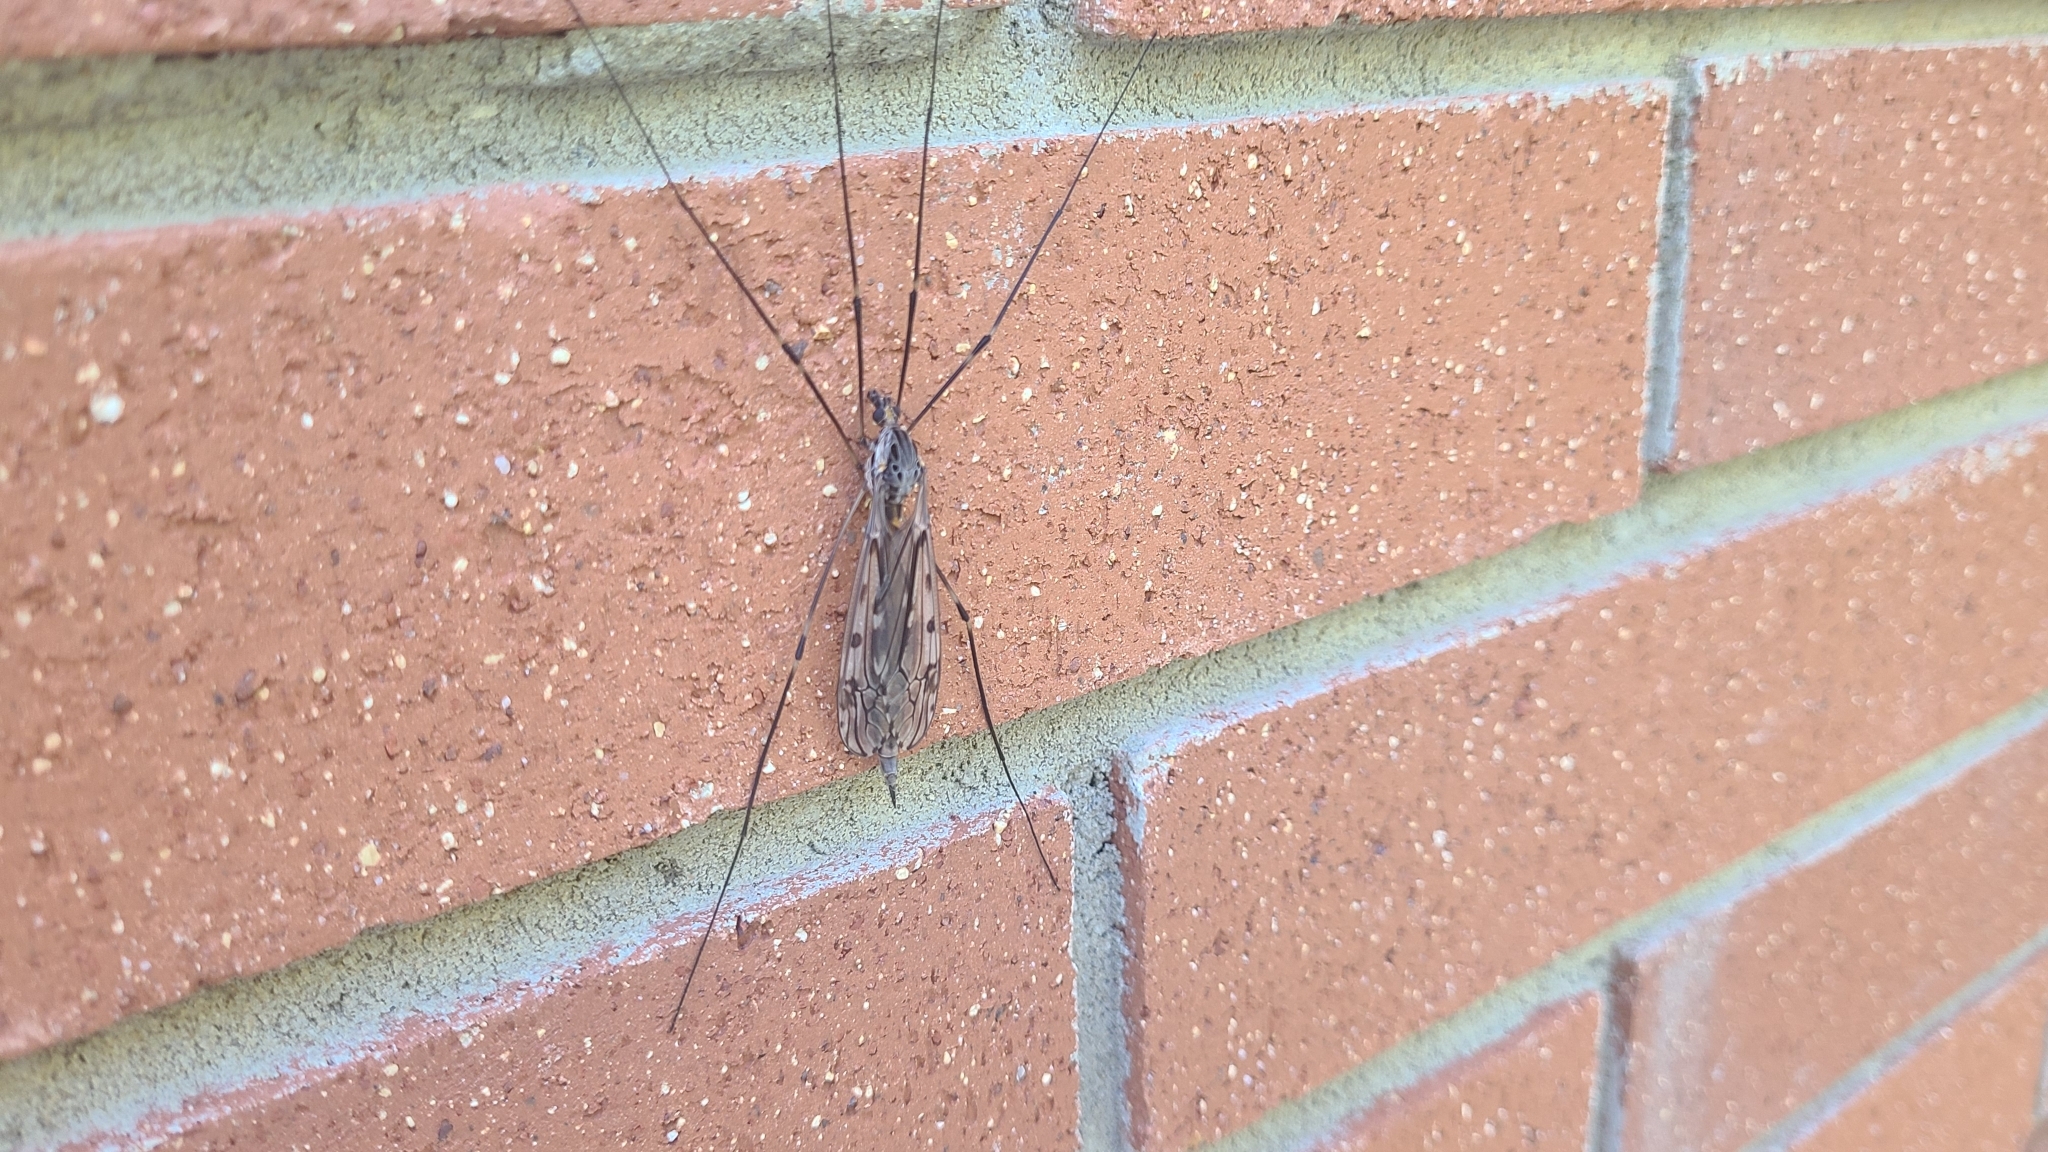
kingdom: Animalia
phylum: Arthropoda
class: Insecta
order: Diptera
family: Tipulidae
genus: Tipula
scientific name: Tipula abdominalis
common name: Giant crane fly
